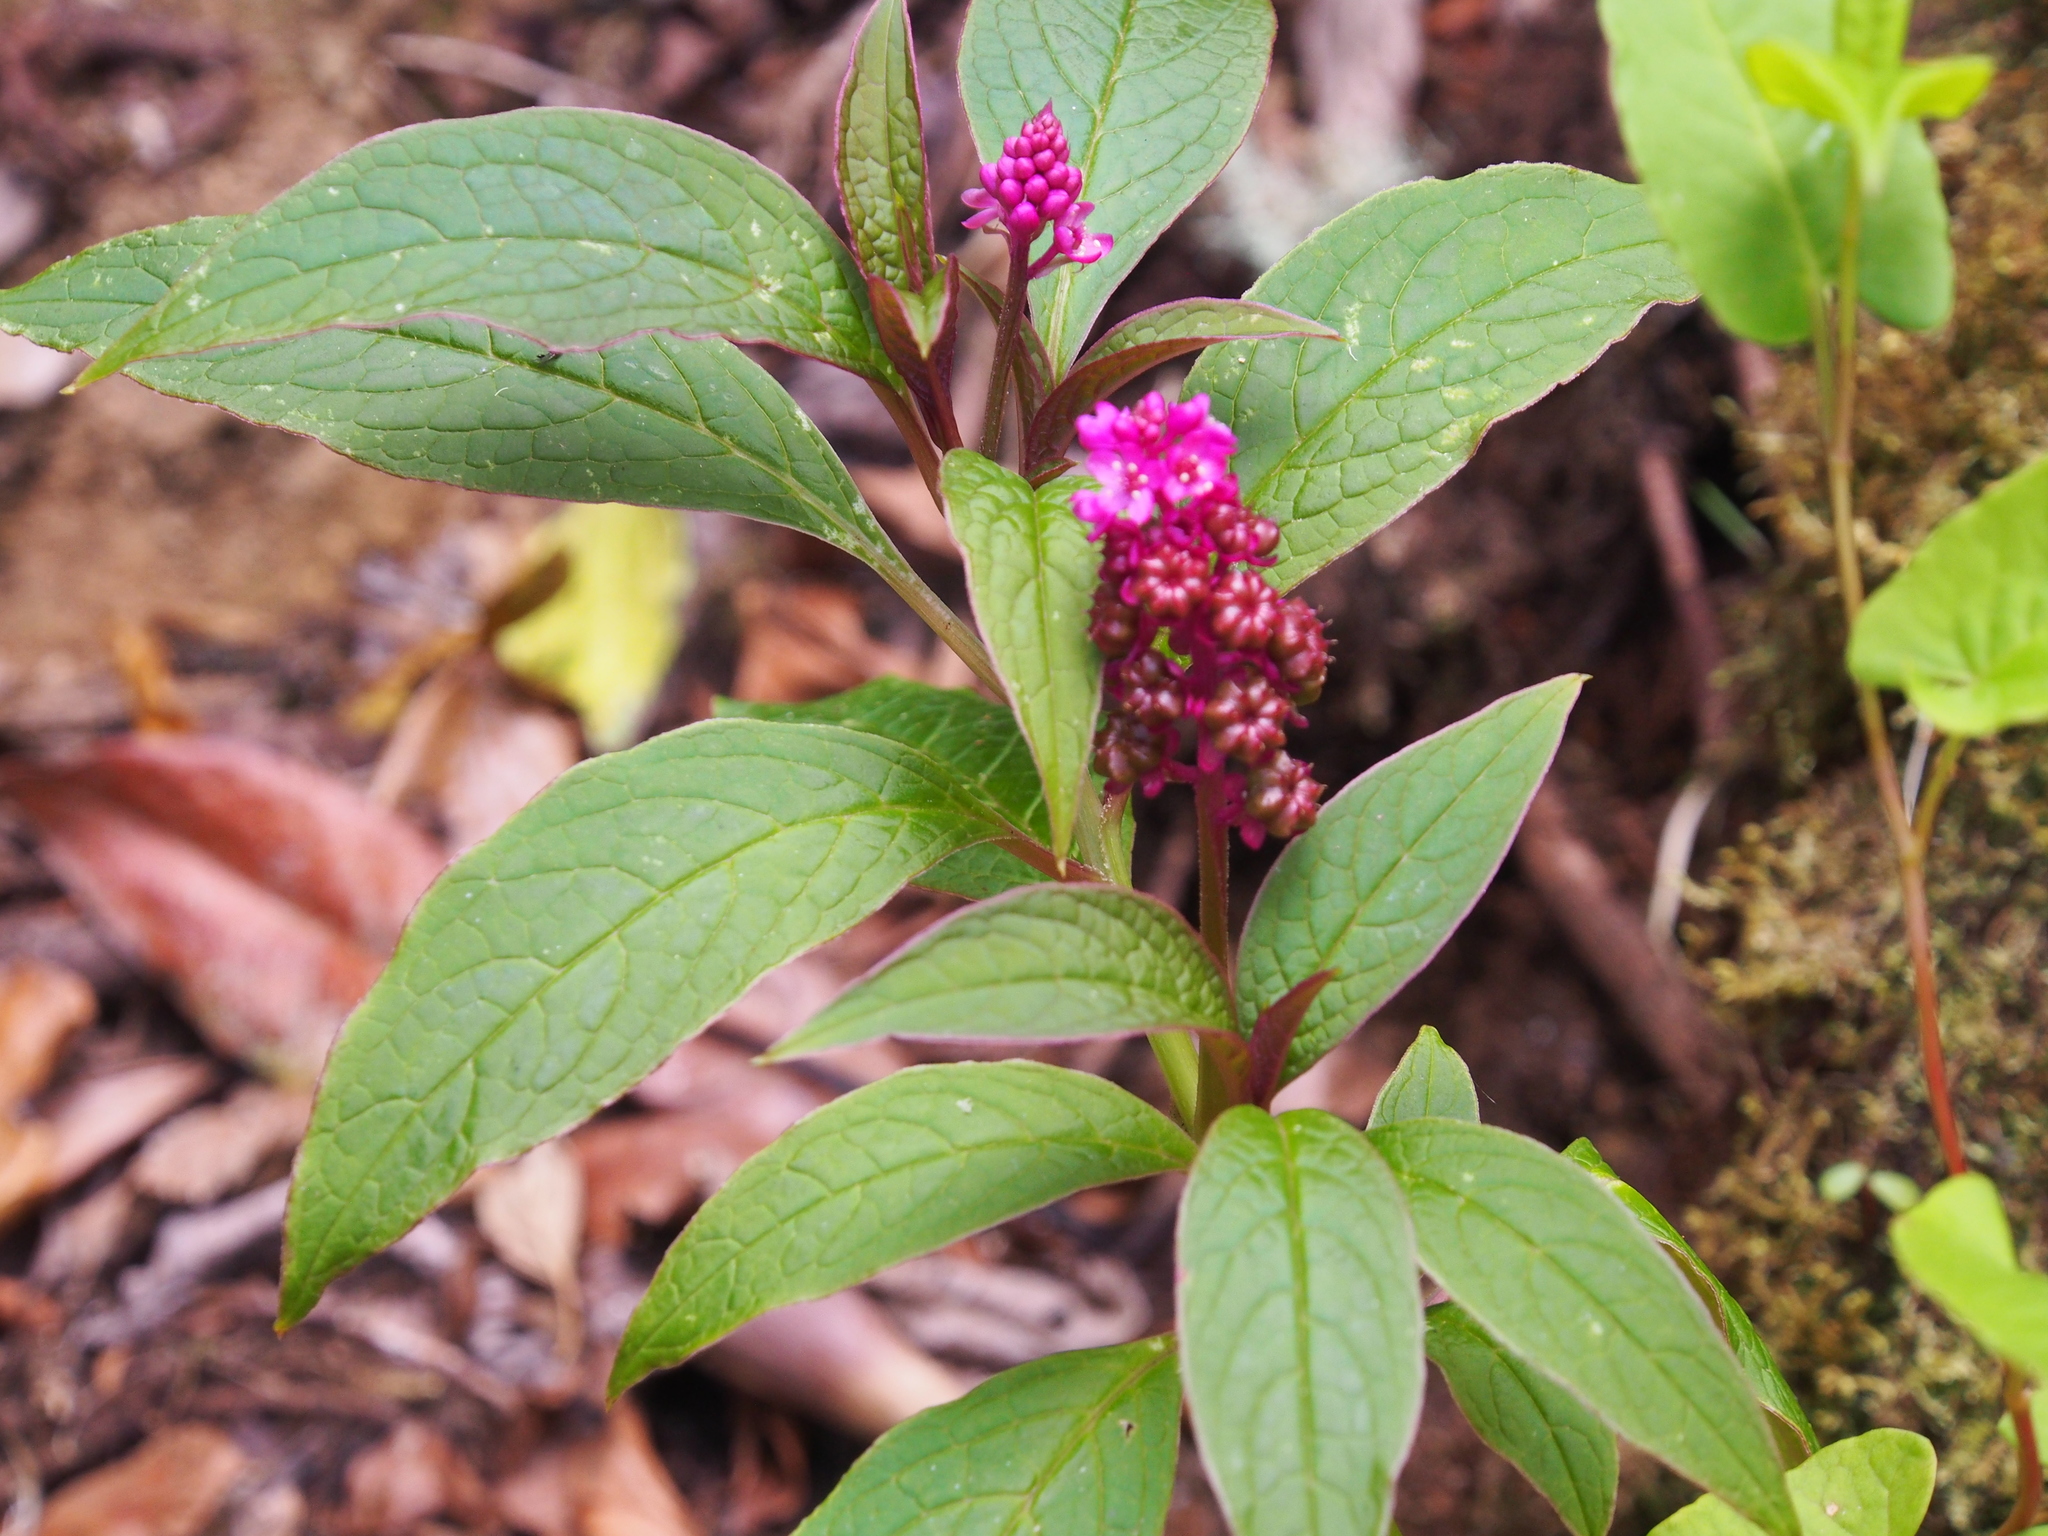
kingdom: Plantae
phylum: Tracheophyta
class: Magnoliopsida
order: Caryophyllales
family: Phytolaccaceae
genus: Phytolacca
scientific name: Phytolacca rugosa
